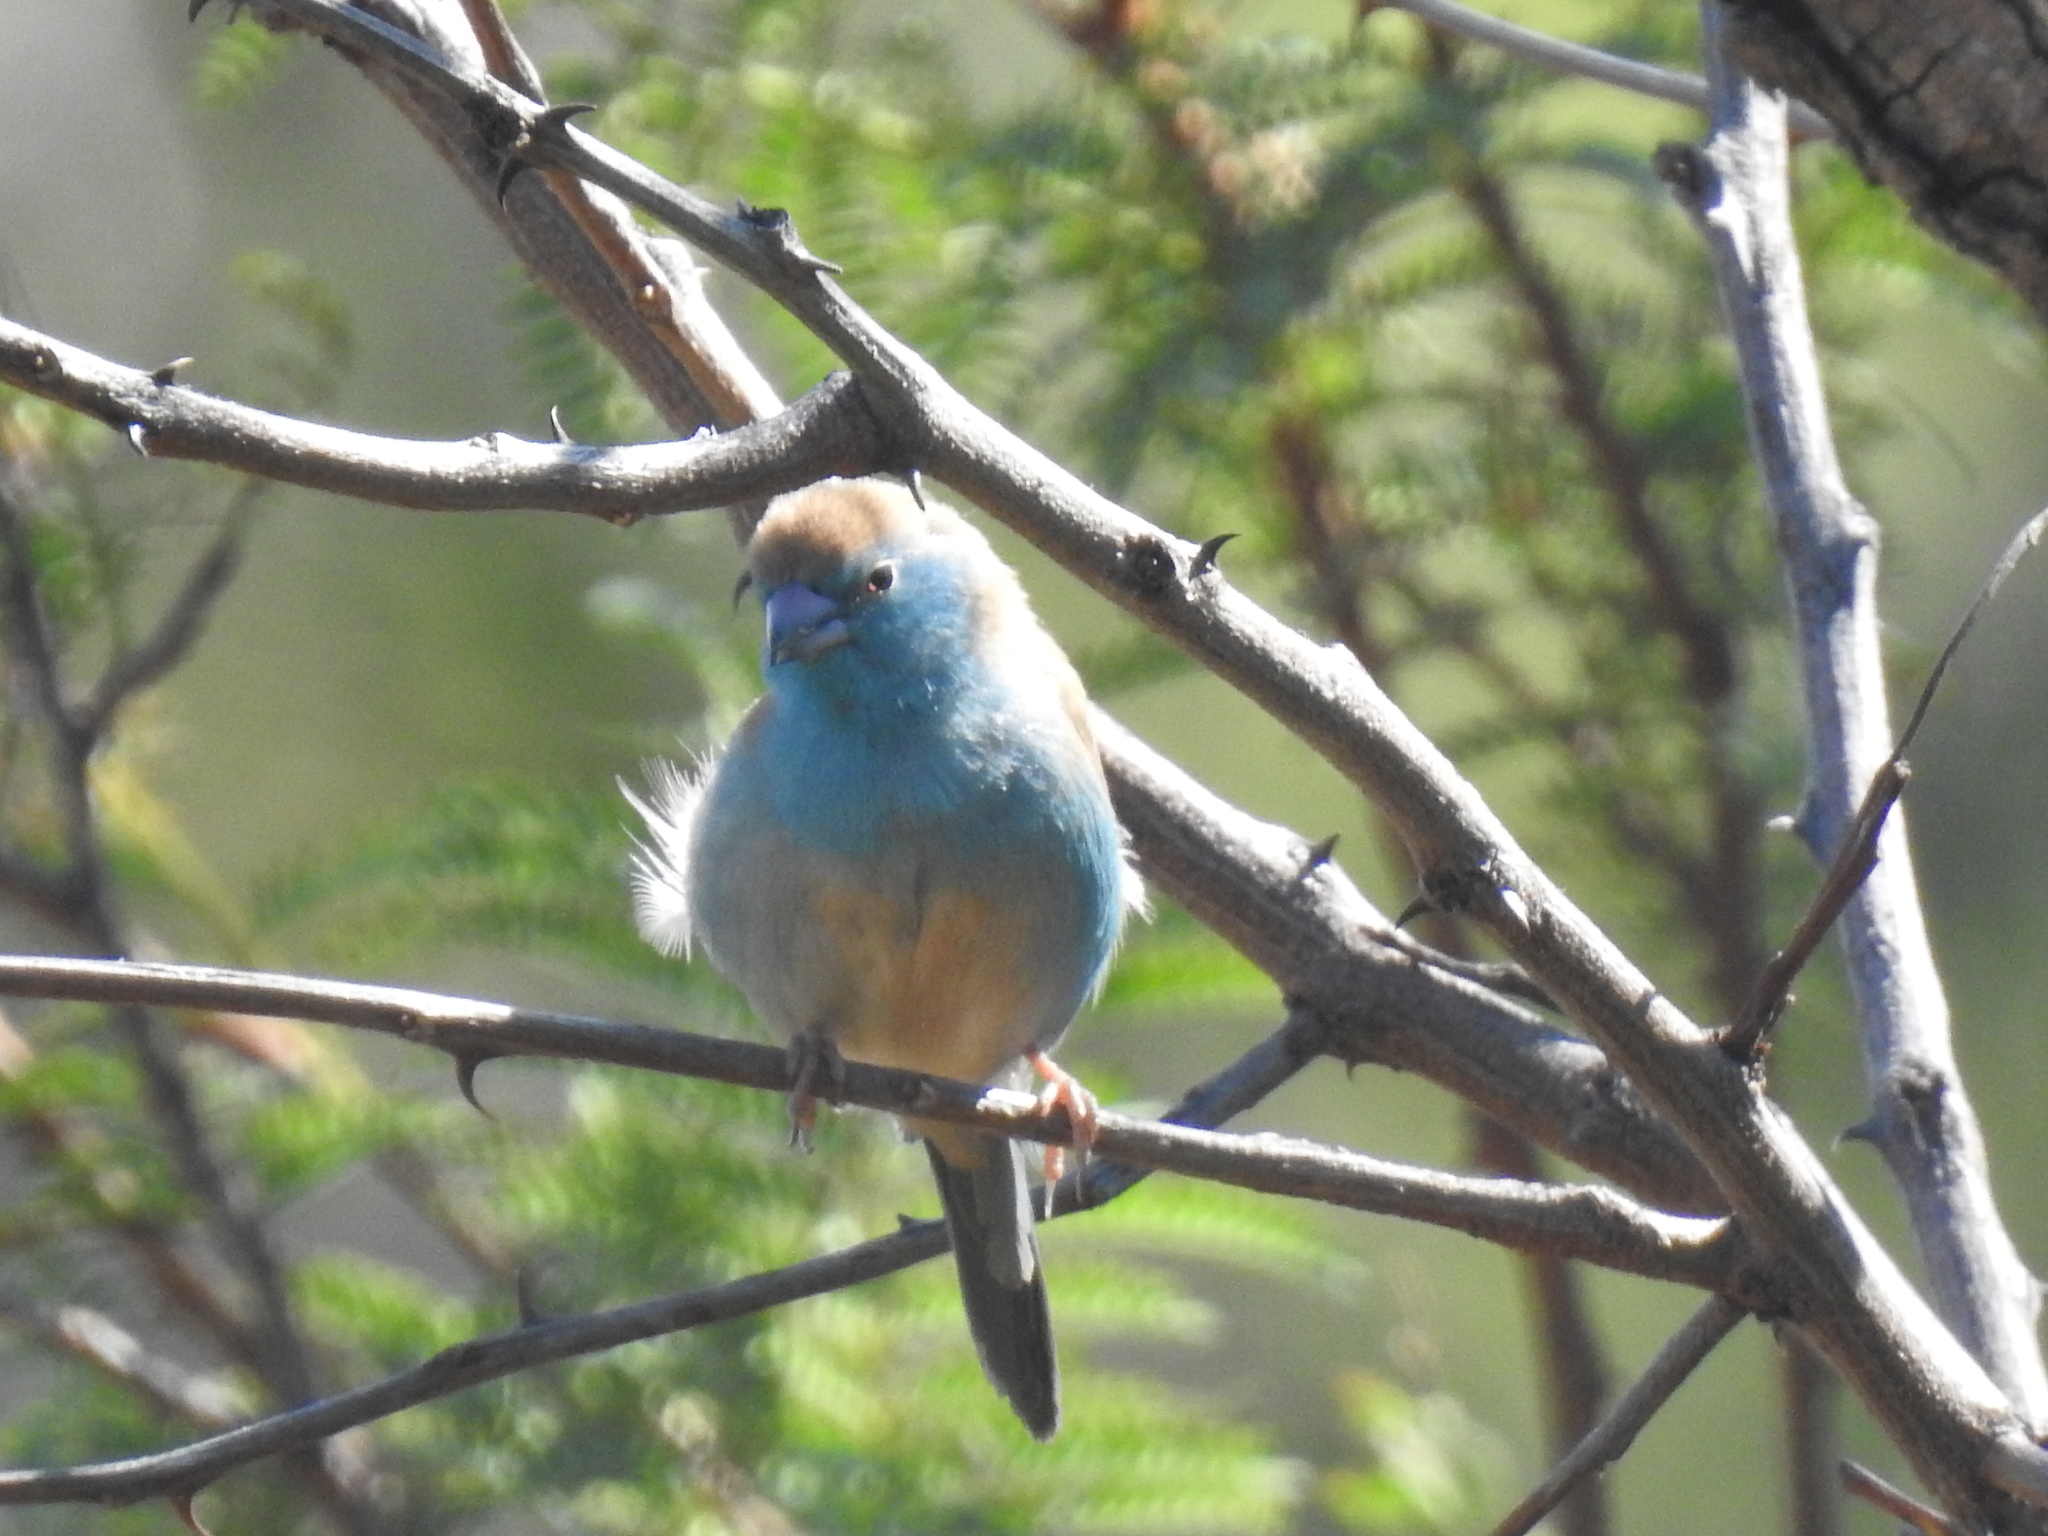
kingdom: Animalia
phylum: Chordata
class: Aves
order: Passeriformes
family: Estrildidae
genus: Uraeginthus
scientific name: Uraeginthus angolensis
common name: Blue waxbill
